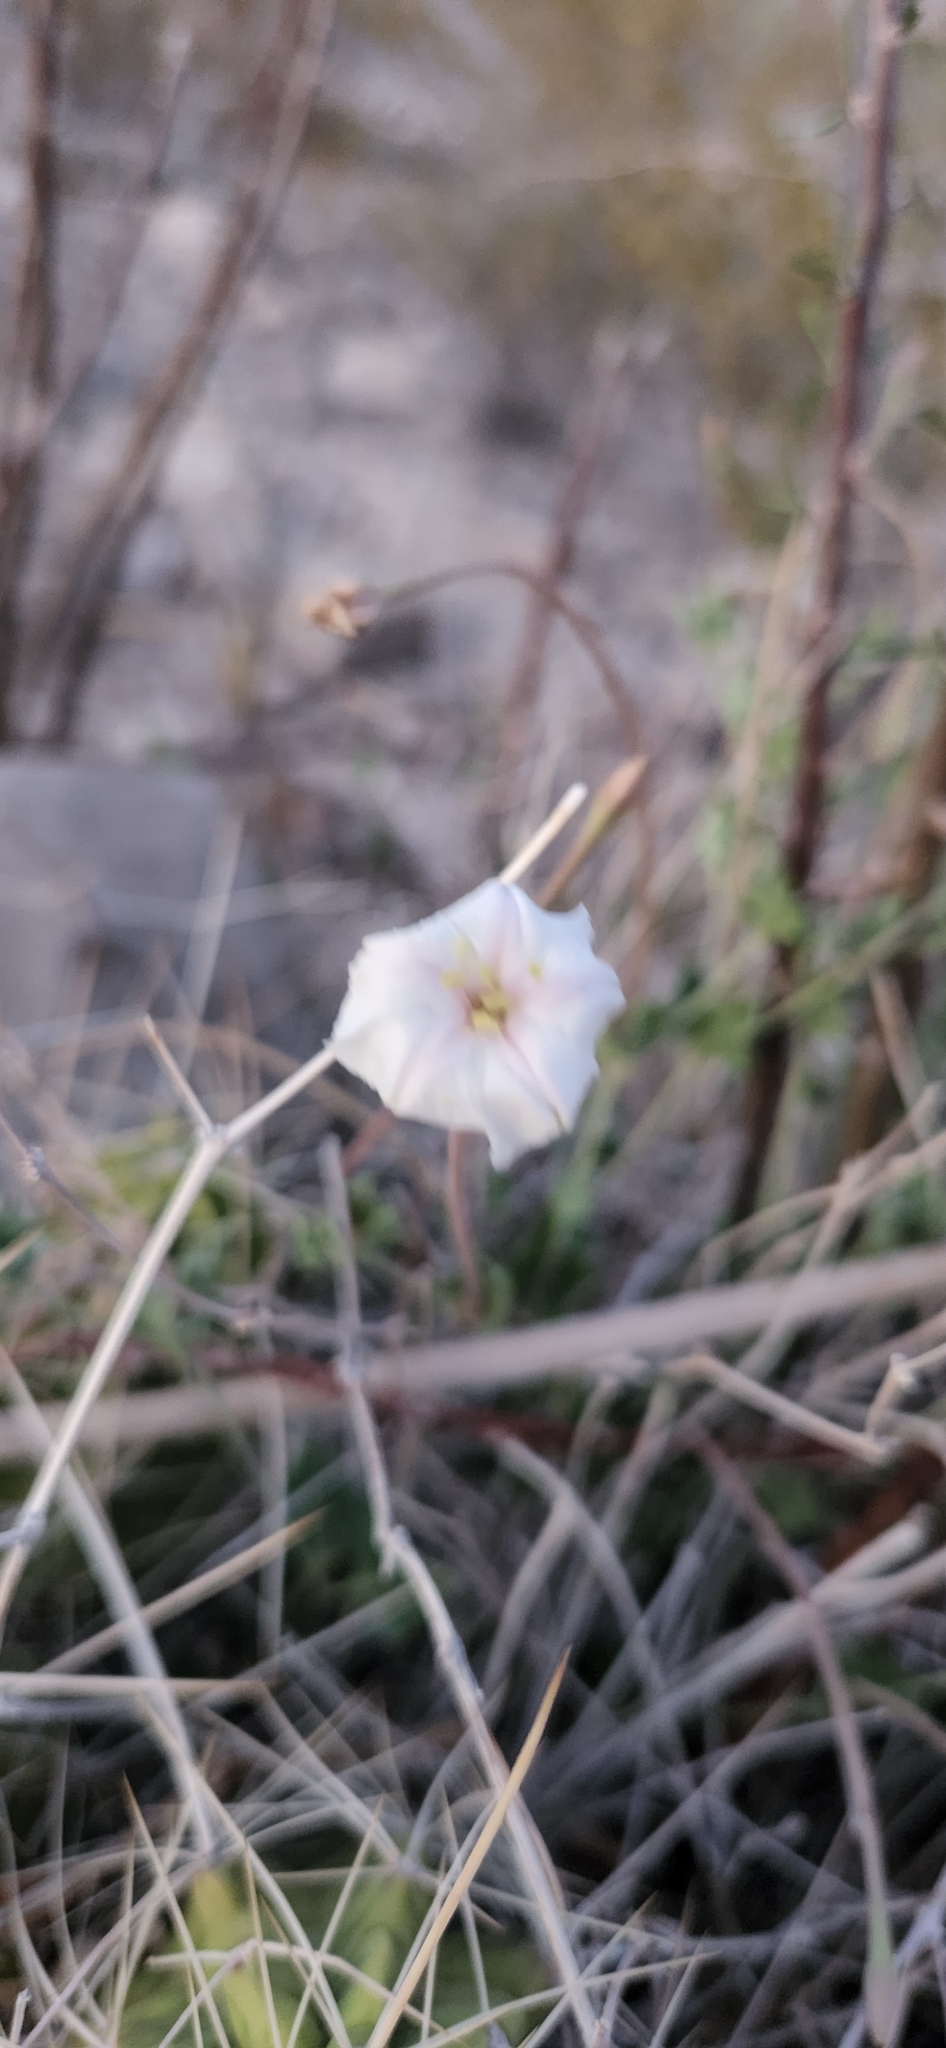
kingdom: Plantae
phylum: Tracheophyta
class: Magnoliopsida
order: Caryophyllales
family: Nyctaginaceae
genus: Acleisanthes
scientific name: Acleisanthes longiflora
